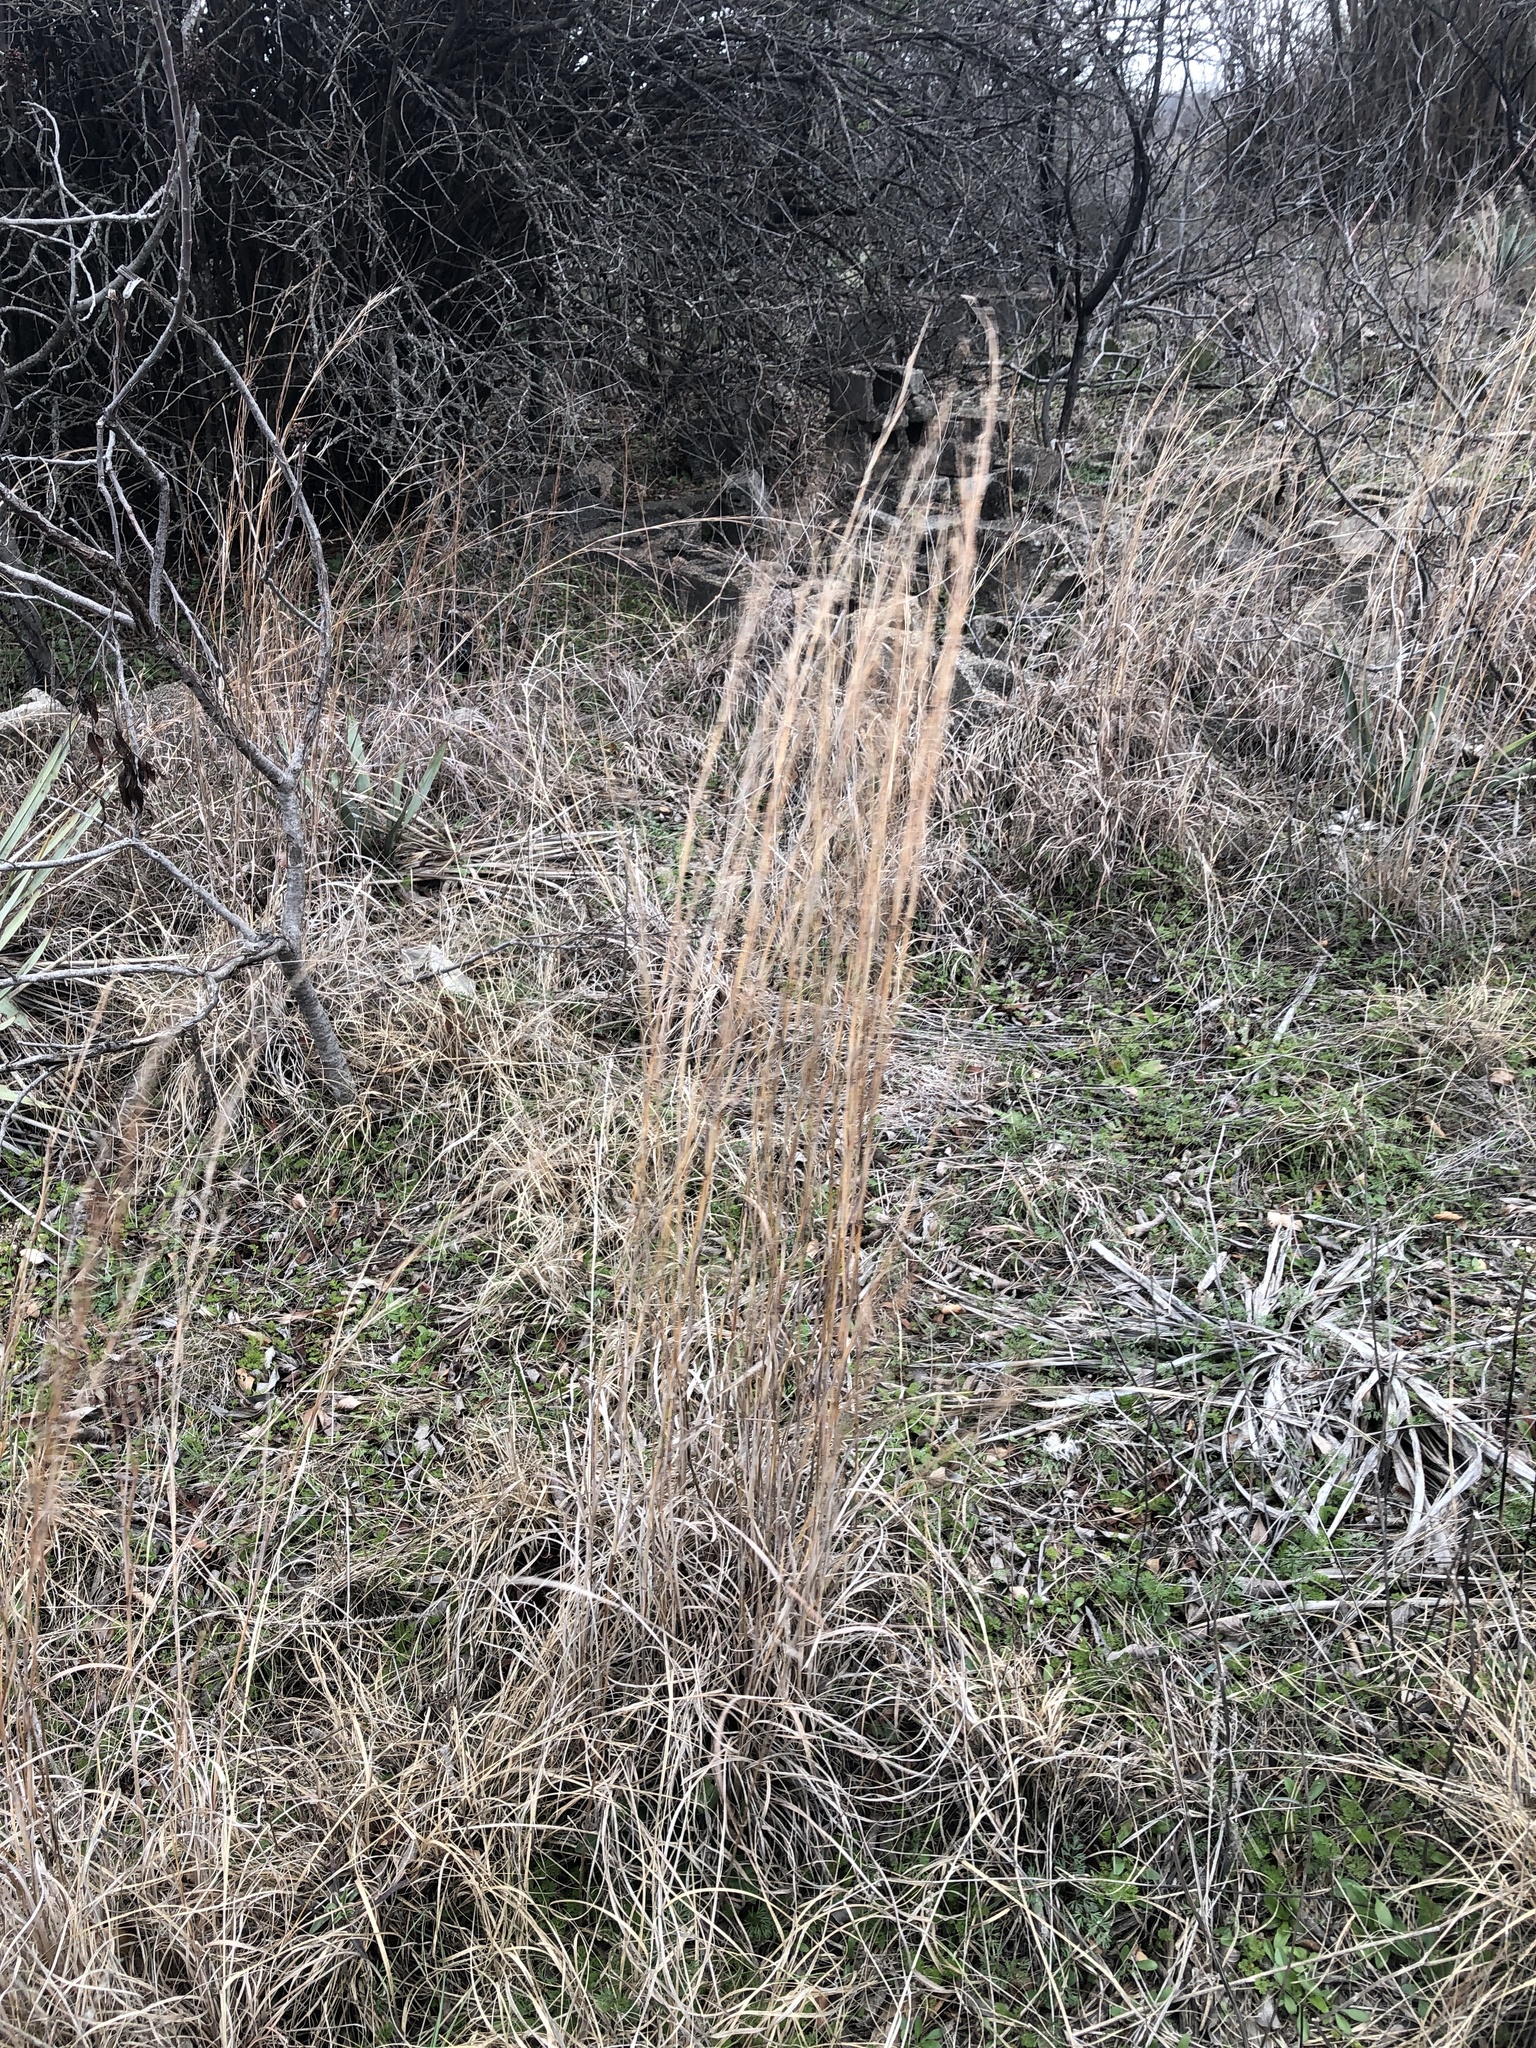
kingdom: Plantae
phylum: Tracheophyta
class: Liliopsida
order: Poales
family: Poaceae
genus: Schizachyrium
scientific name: Schizachyrium scoparium
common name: Little bluestem
